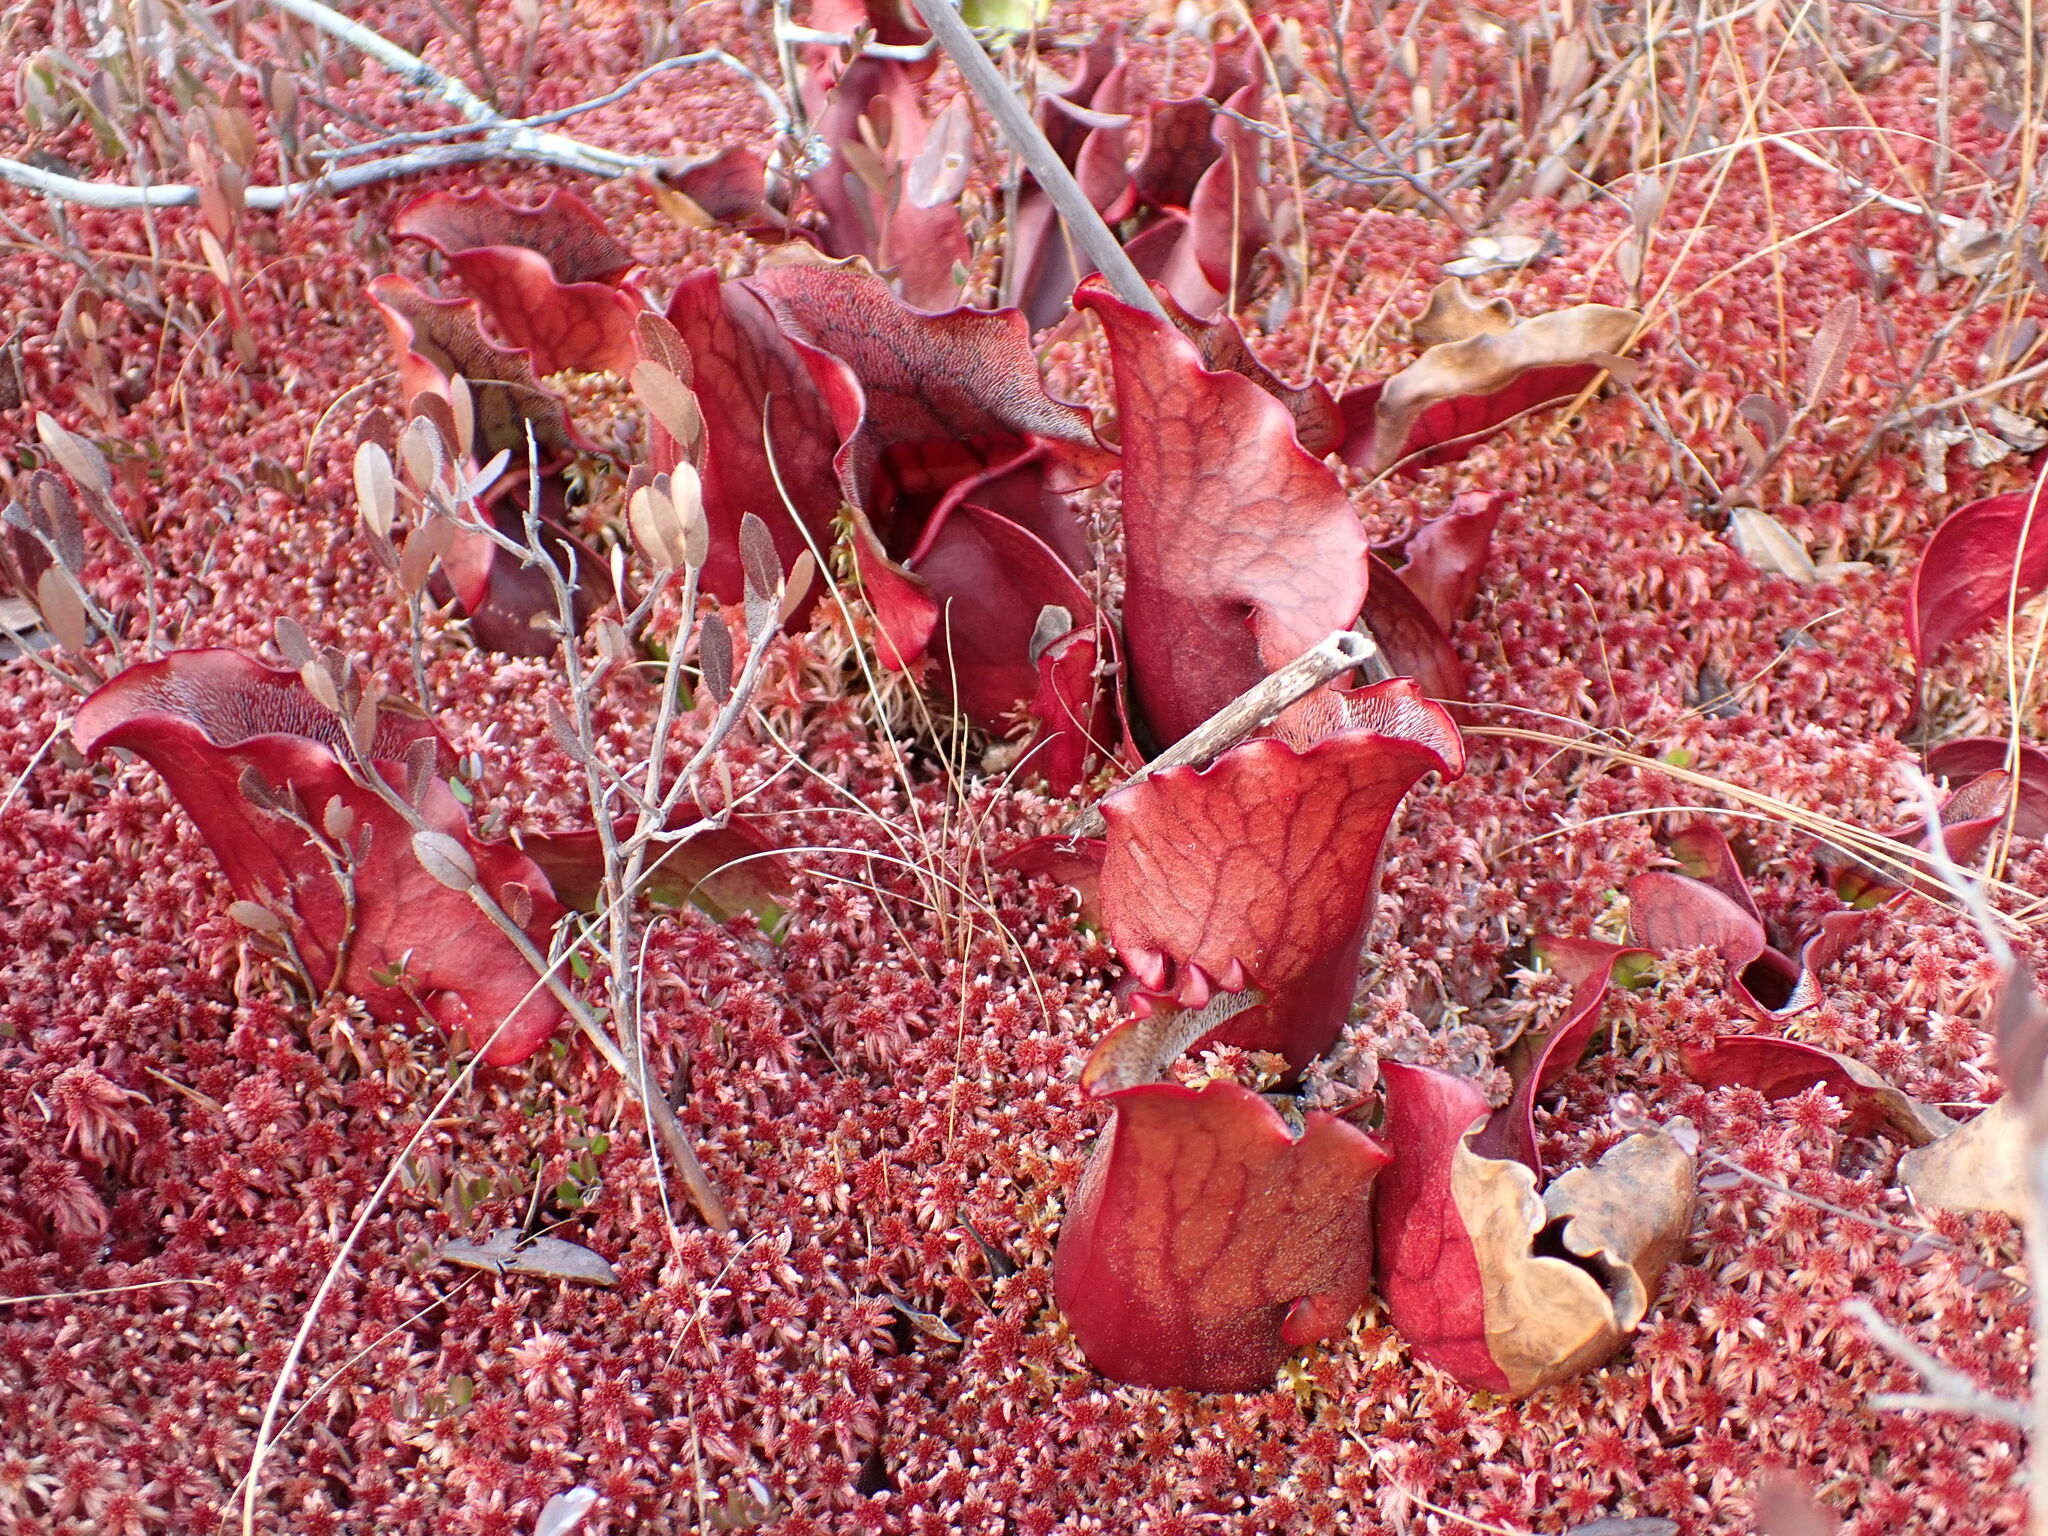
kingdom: Plantae
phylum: Tracheophyta
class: Magnoliopsida
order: Ericales
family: Sarraceniaceae
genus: Sarracenia
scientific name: Sarracenia purpurea
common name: Pitcherplant
